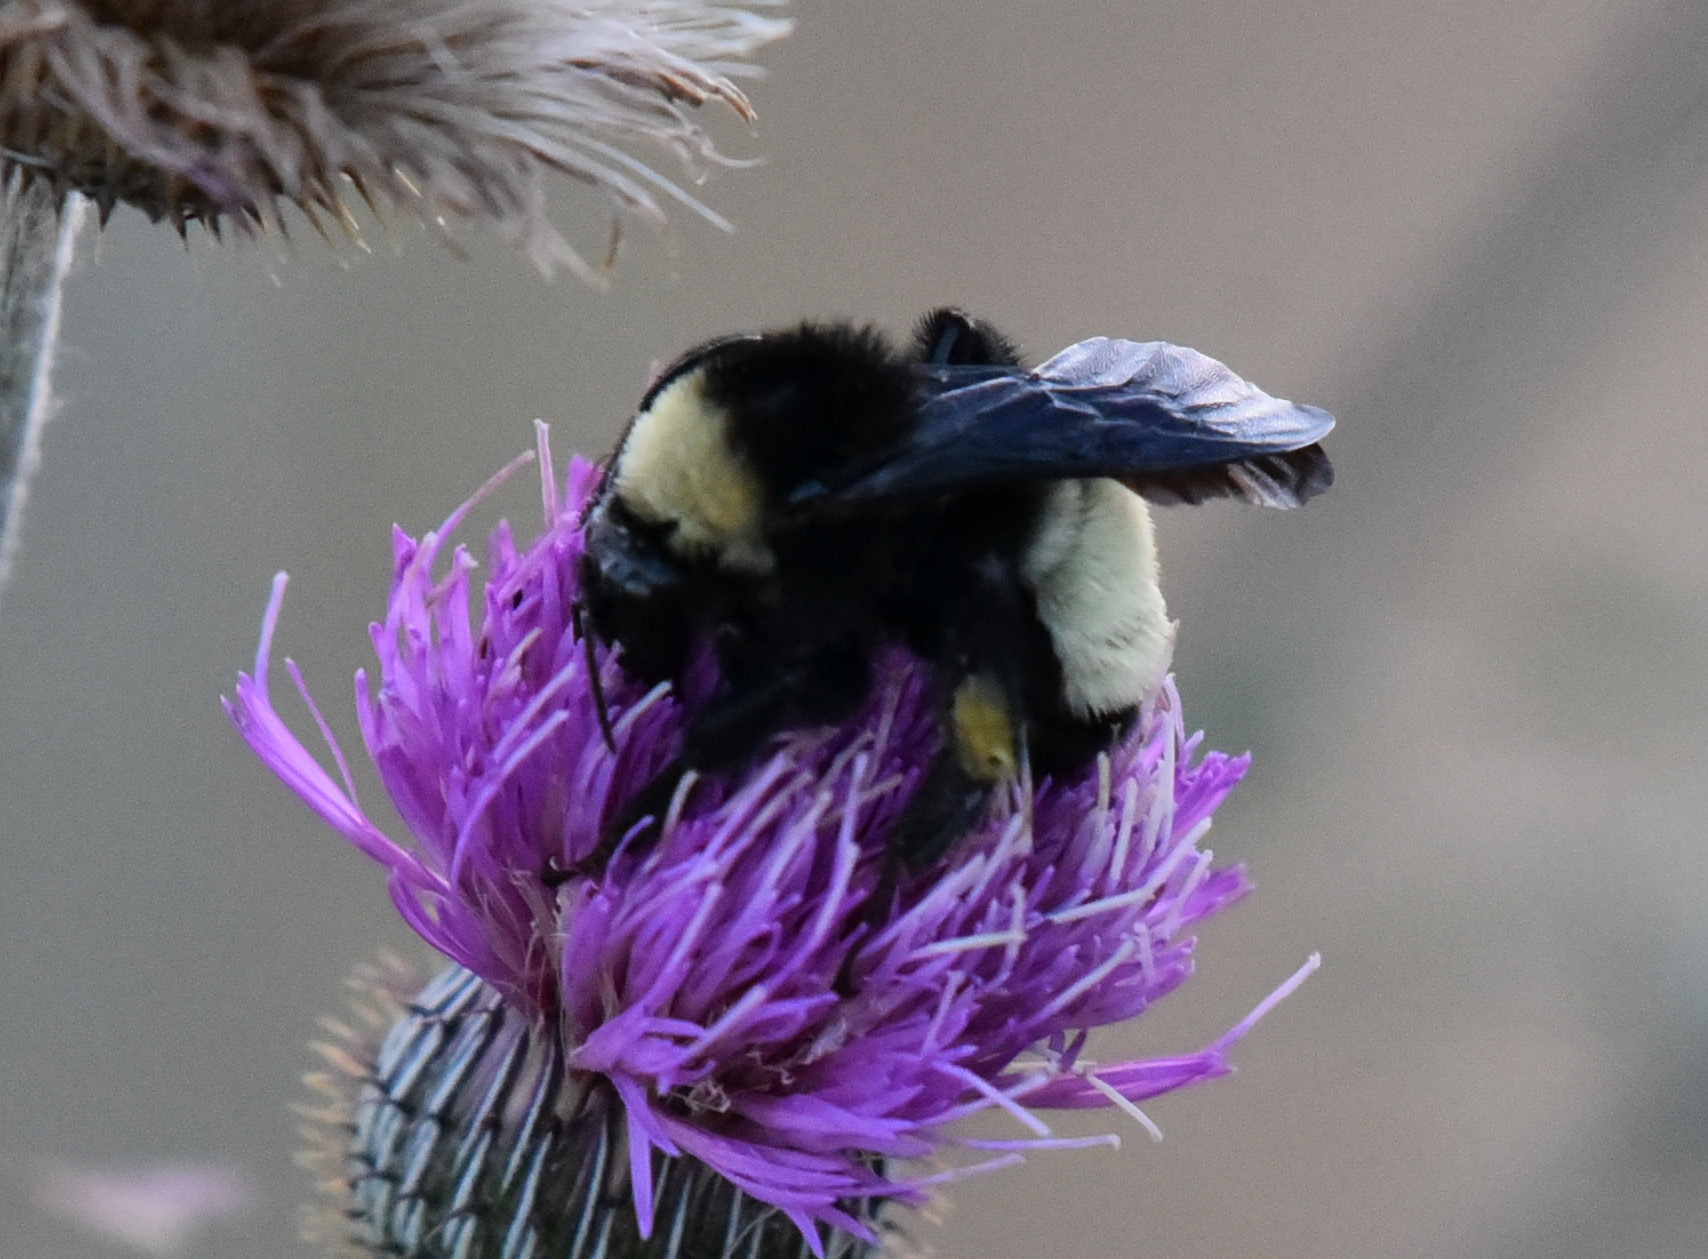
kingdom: Animalia
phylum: Arthropoda
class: Insecta
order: Hymenoptera
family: Apidae
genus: Bombus
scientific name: Bombus pensylvanicus
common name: Bumble bee
